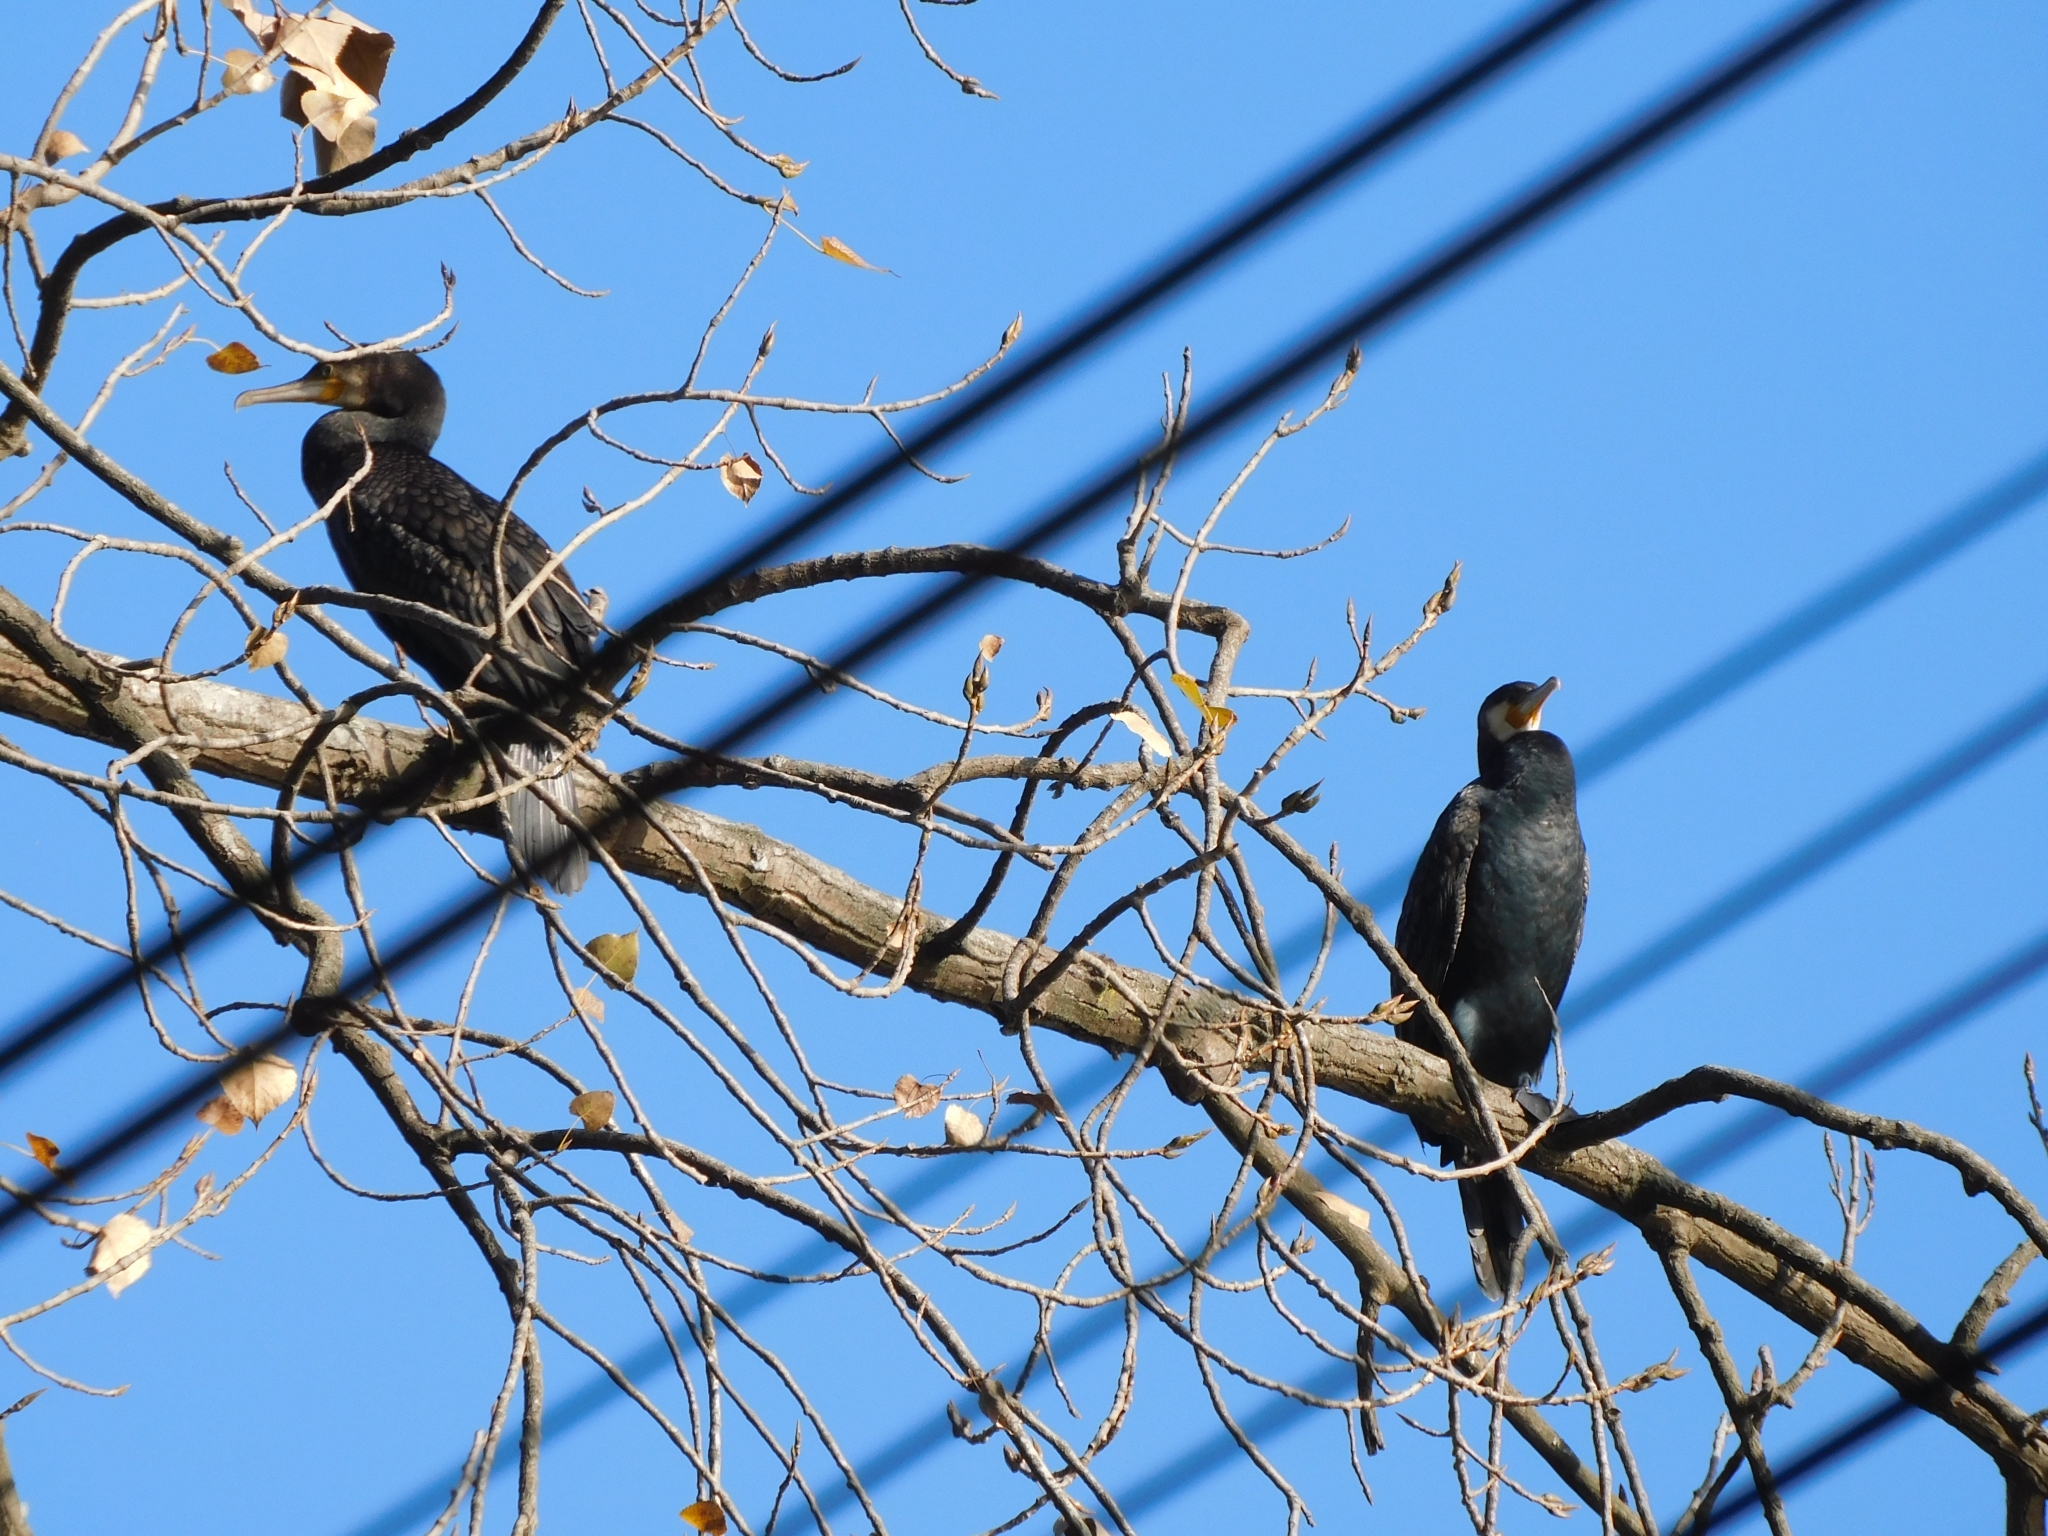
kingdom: Animalia
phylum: Chordata
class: Aves
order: Suliformes
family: Phalacrocoracidae
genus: Phalacrocorax
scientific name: Phalacrocorax carbo
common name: Great cormorant
